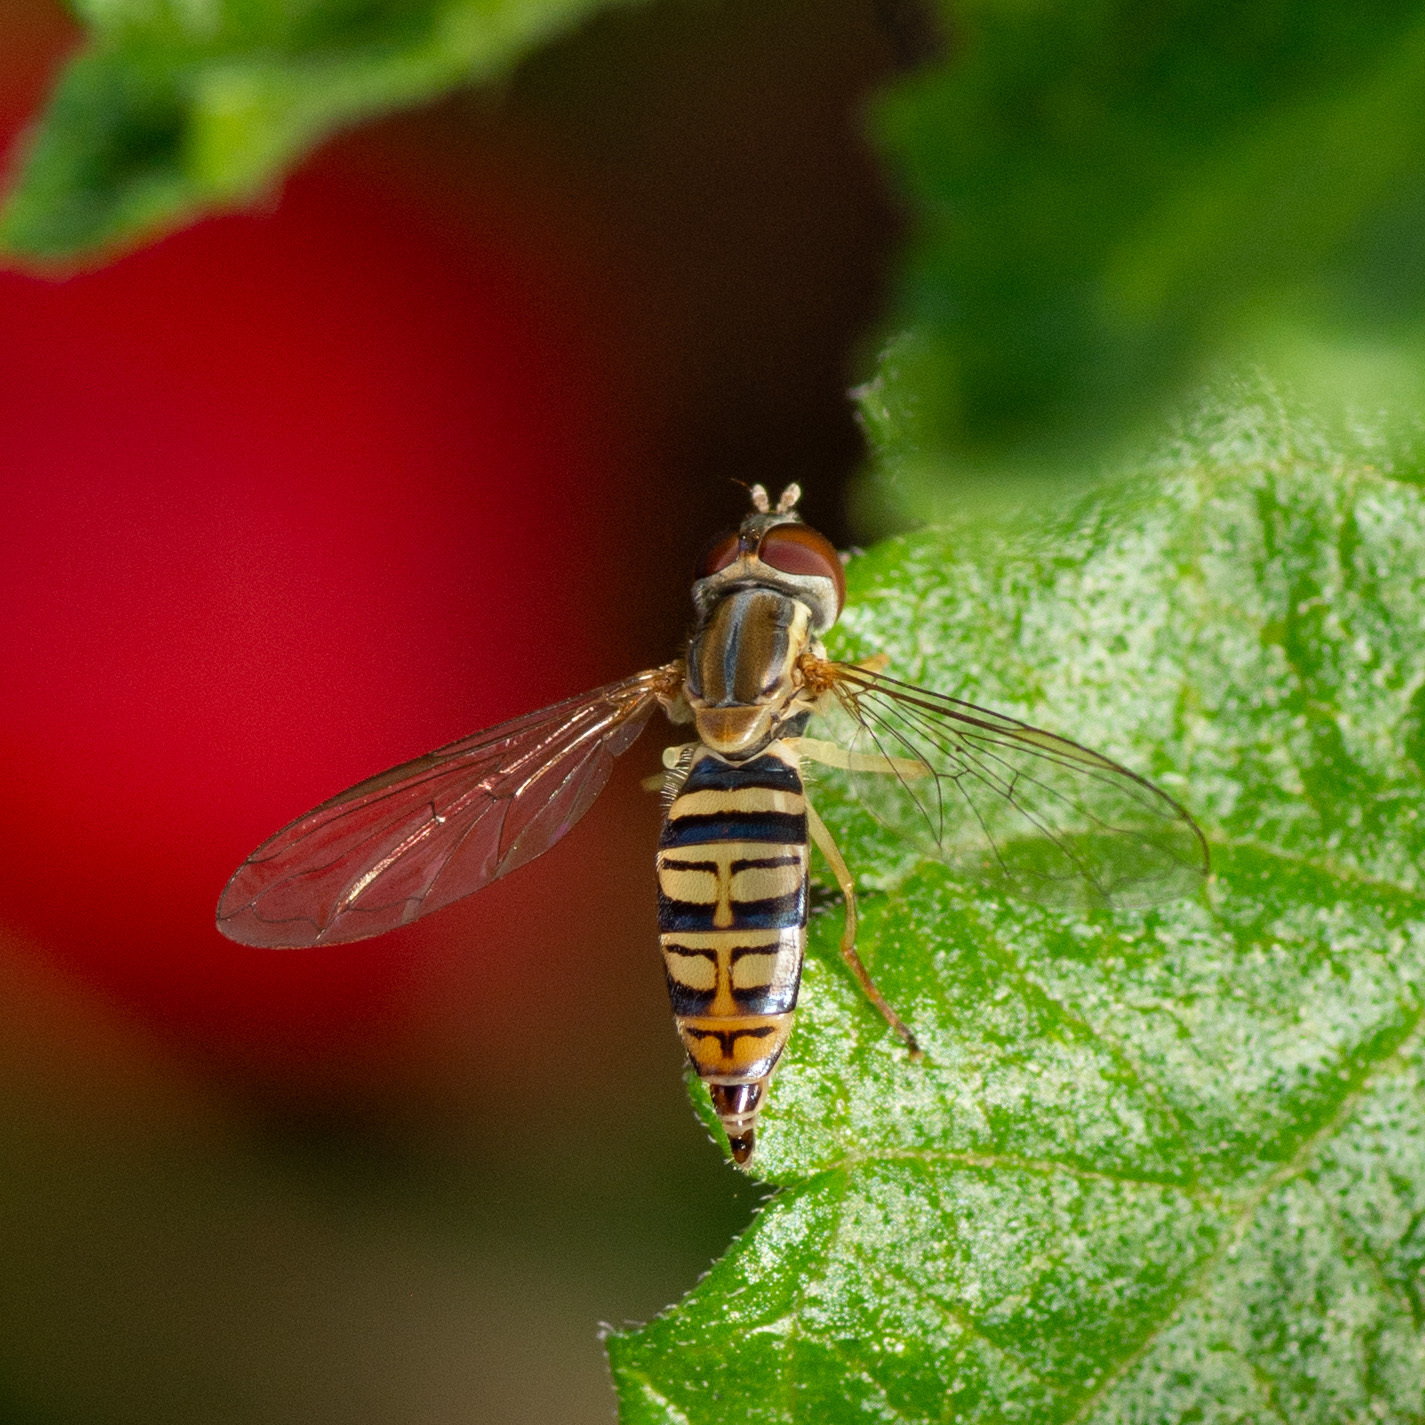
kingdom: Animalia
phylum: Arthropoda
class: Insecta
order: Diptera
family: Syrphidae
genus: Toxomerus
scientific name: Toxomerus politus
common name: Maize calligrapher
